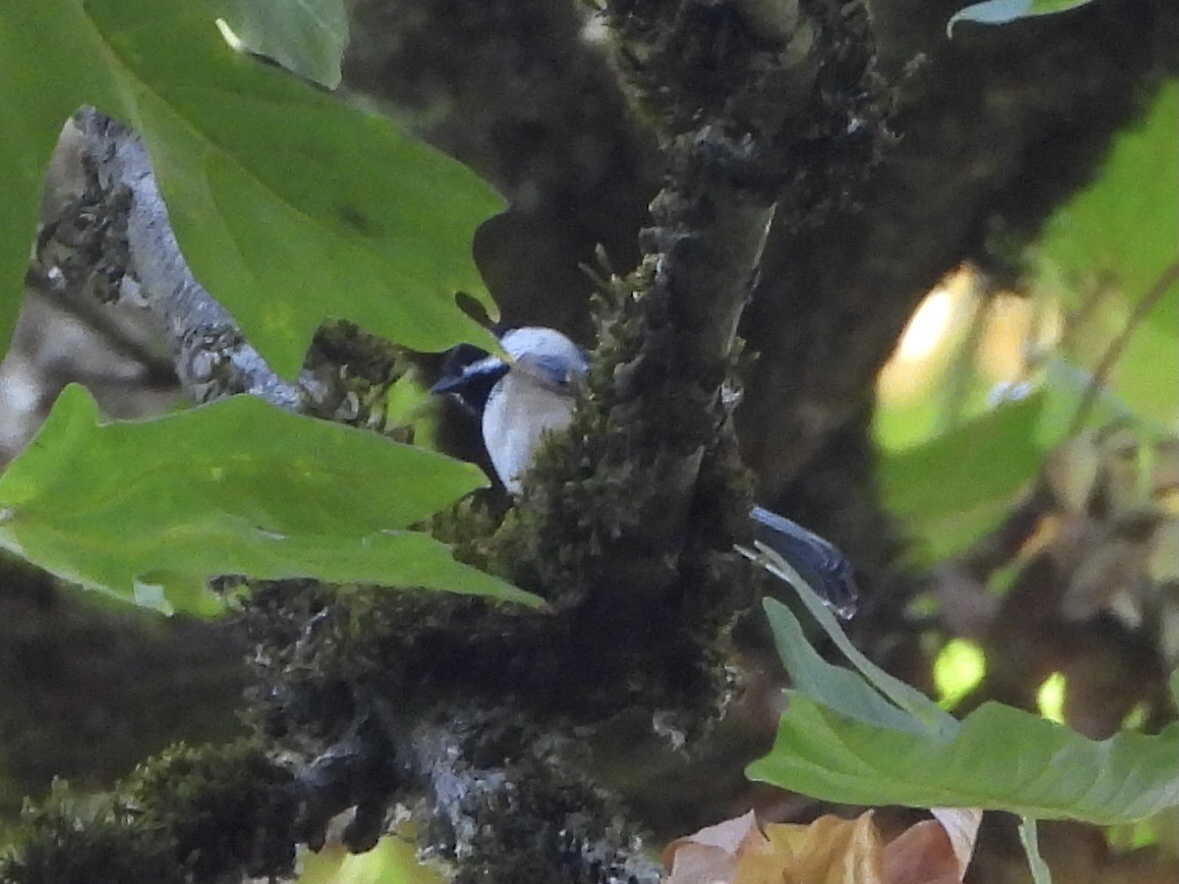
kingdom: Animalia
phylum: Chordata
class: Aves
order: Passeriformes
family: Paridae
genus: Poecile
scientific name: Poecile atricapillus
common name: Black-capped chickadee
